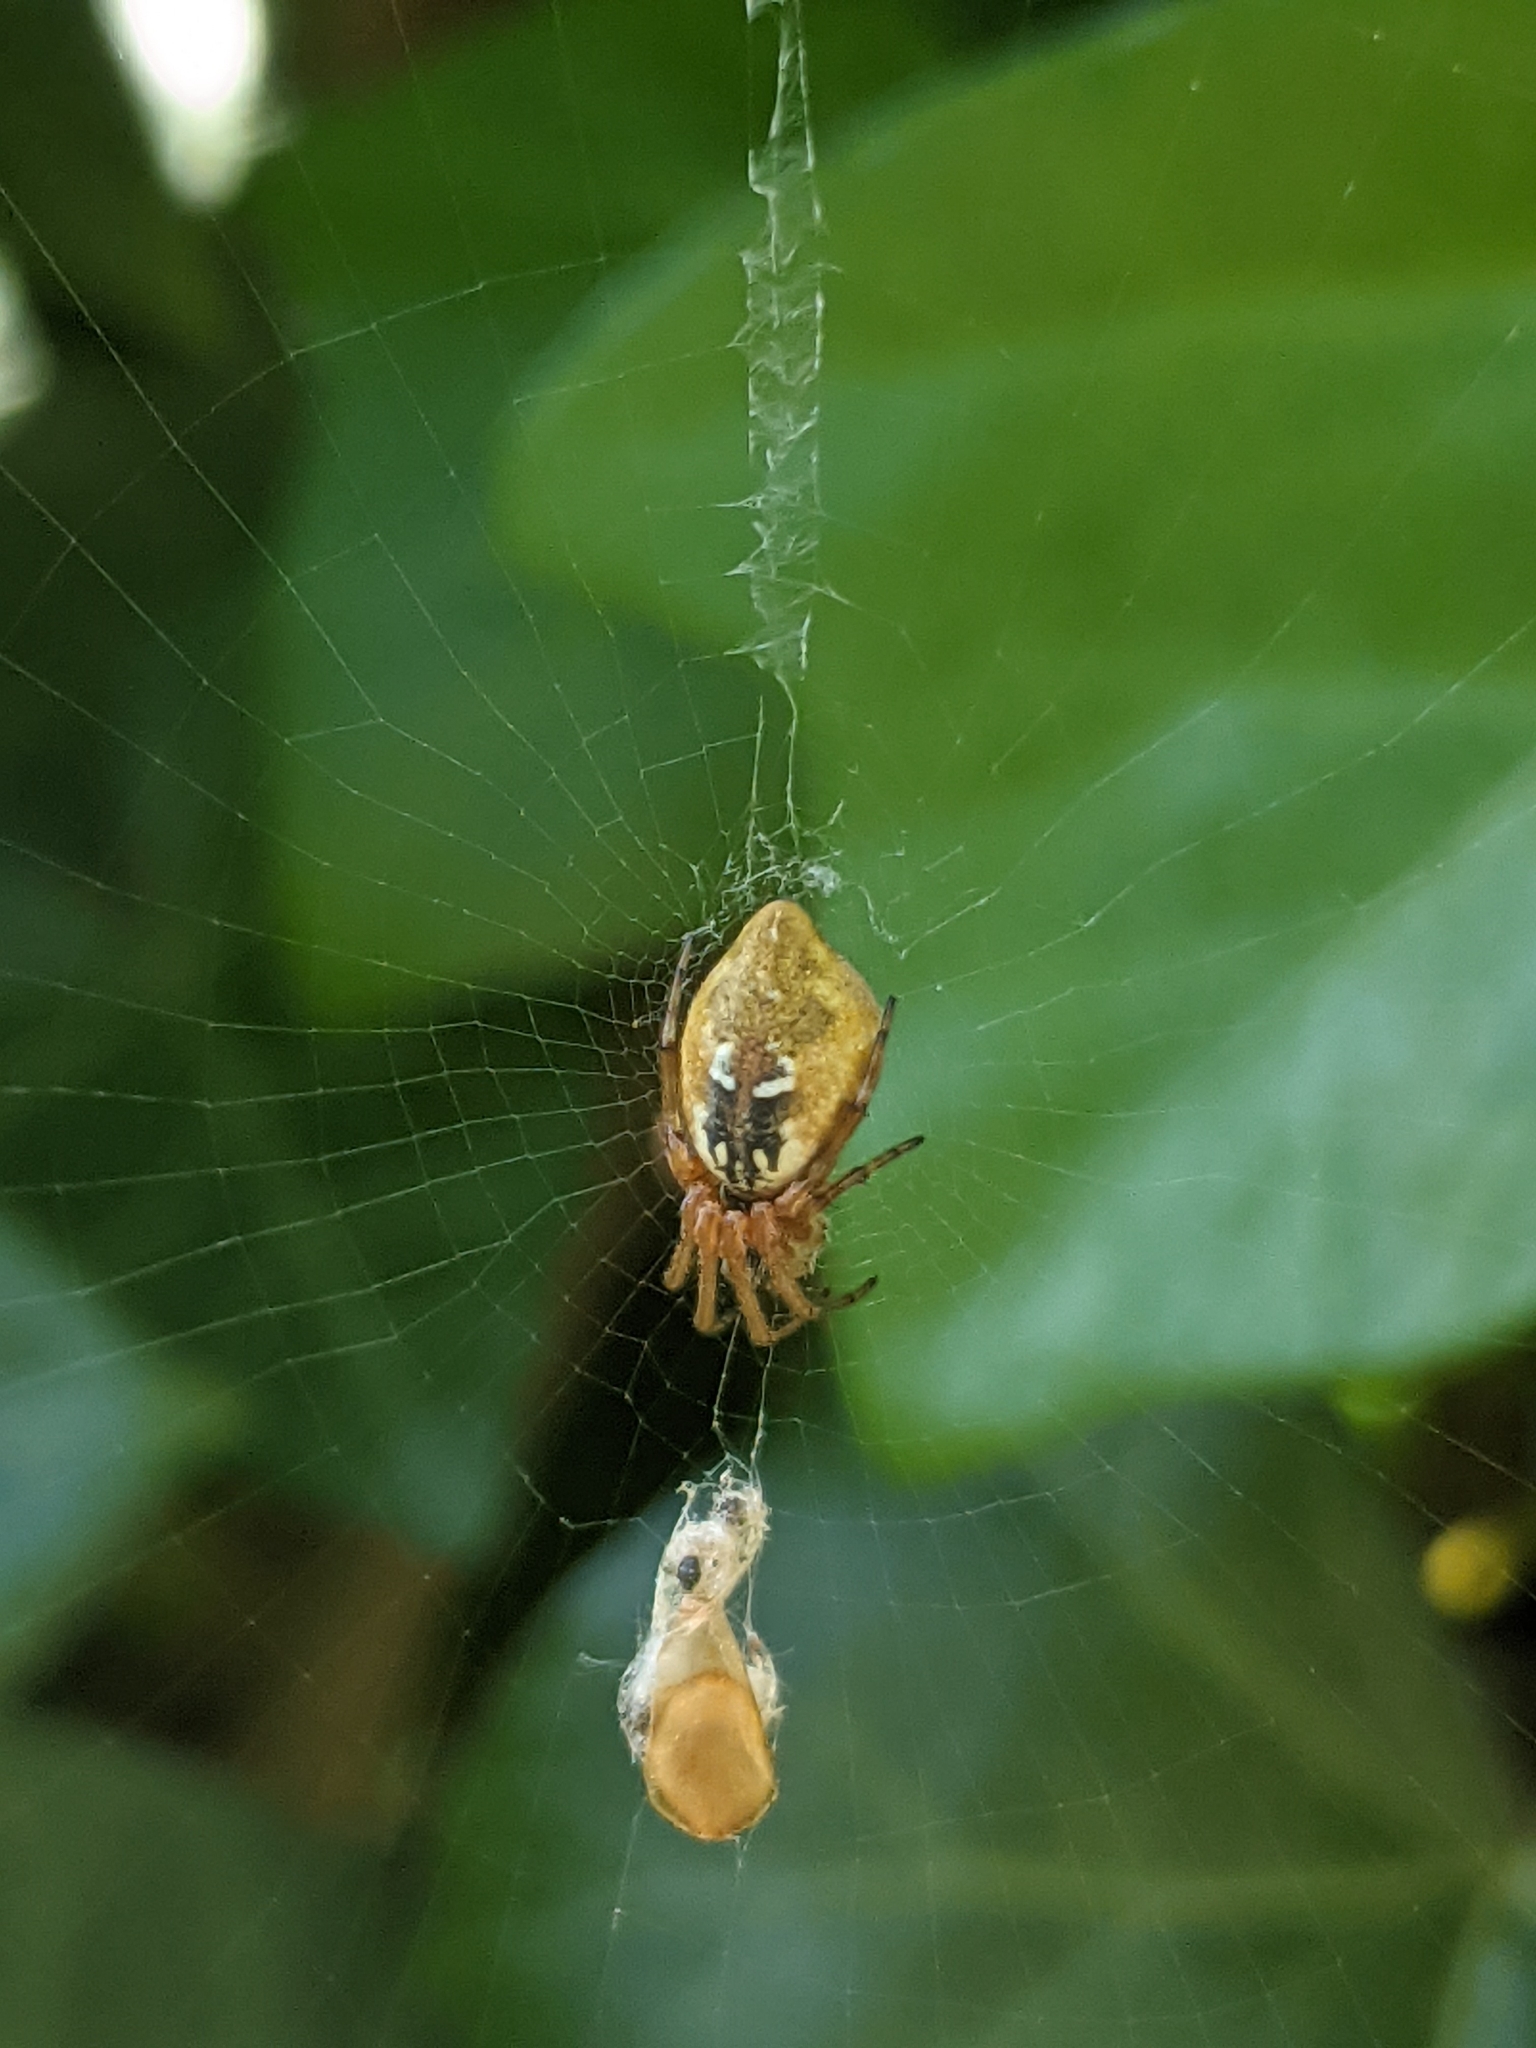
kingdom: Animalia
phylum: Arthropoda
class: Arachnida
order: Araneae
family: Araneidae
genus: Cyclosa
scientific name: Cyclosa conica
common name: Conical trashline orbweaver
